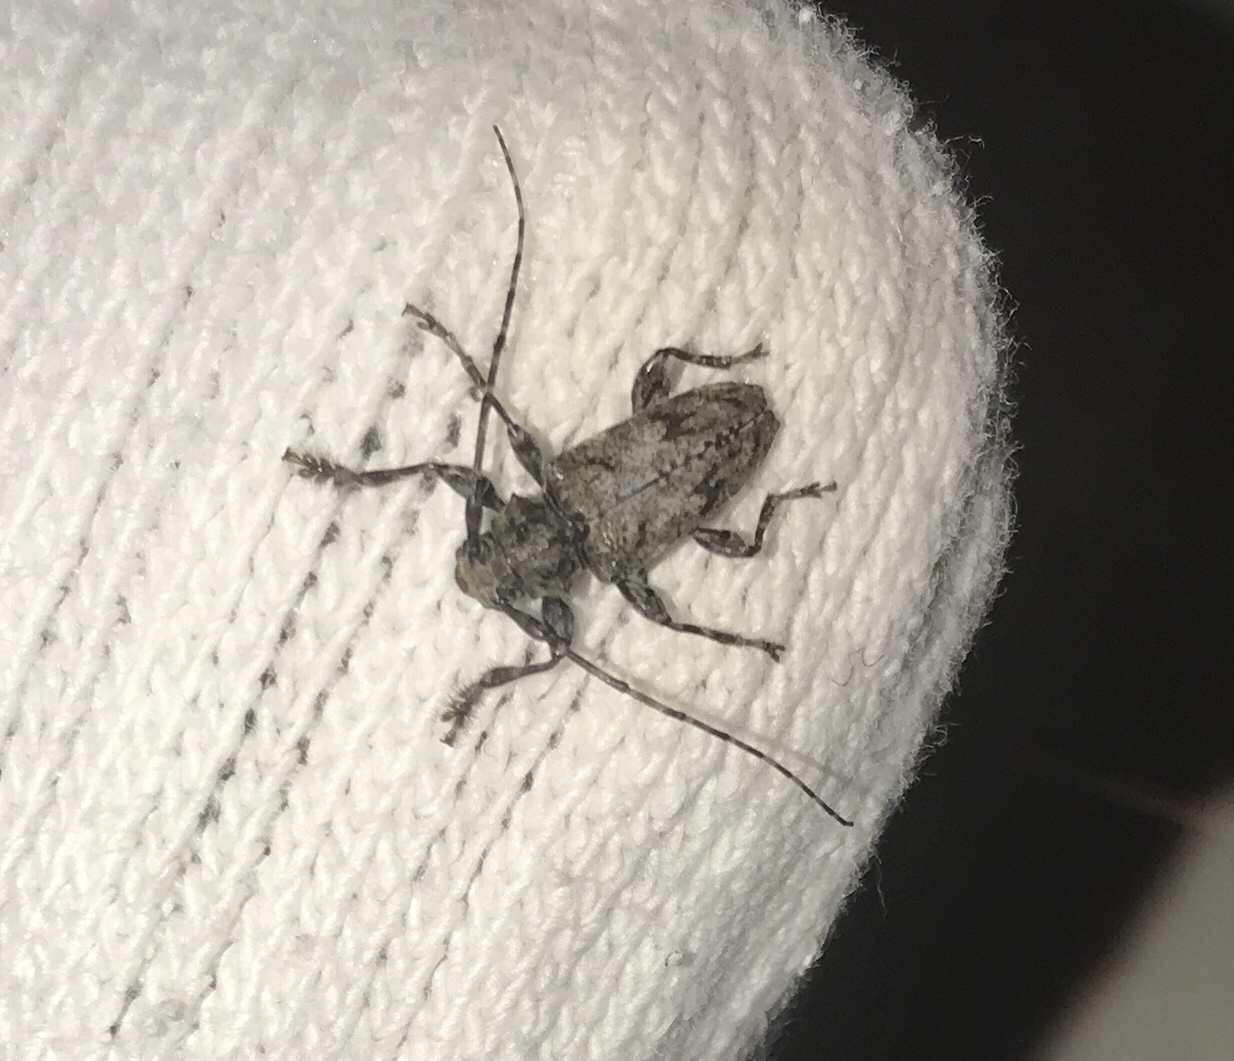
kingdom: Animalia
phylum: Arthropoda
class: Insecta
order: Coleoptera
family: Cerambycidae
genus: Aegomorphus
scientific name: Aegomorphus modestus
